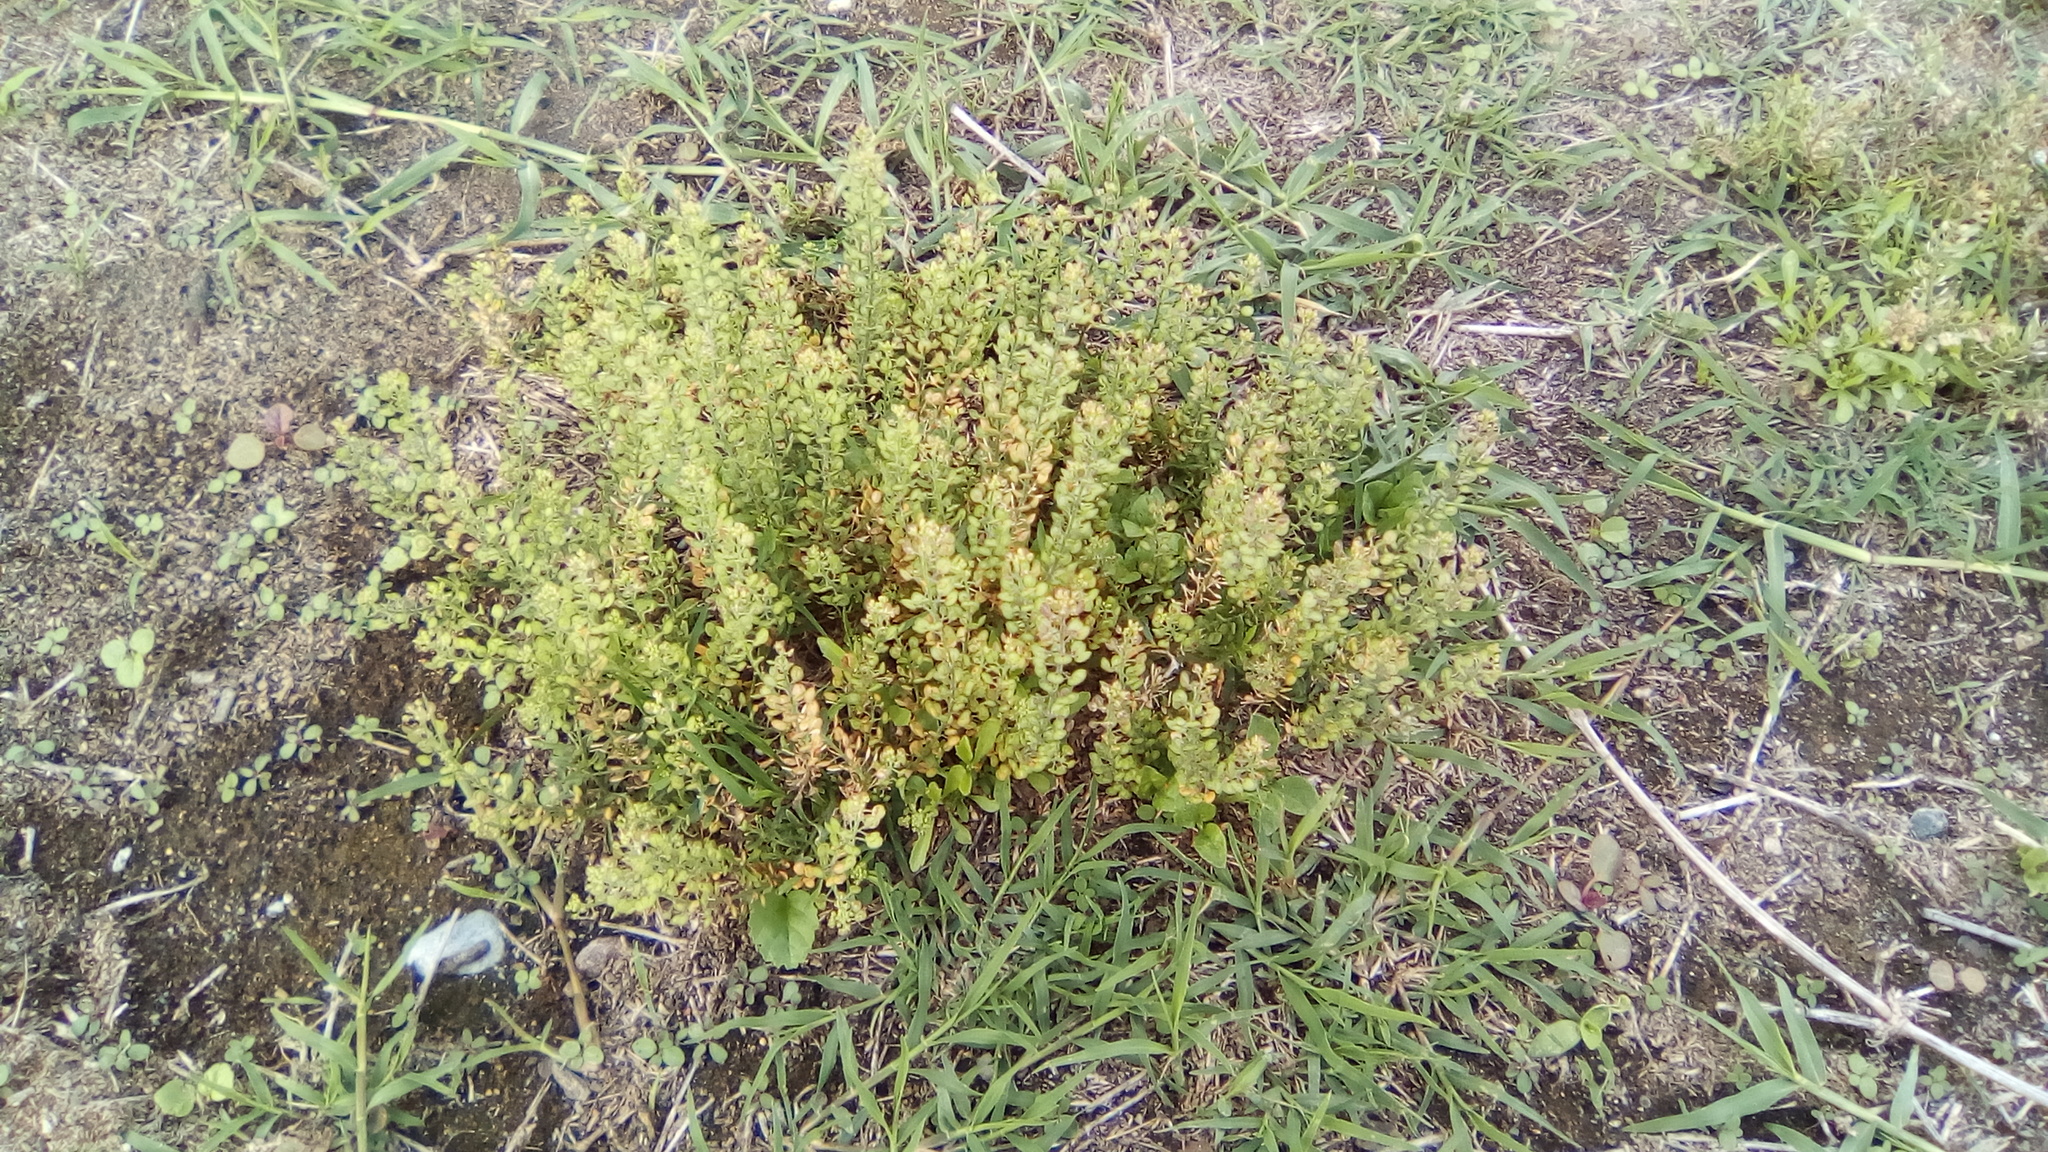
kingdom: Plantae
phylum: Tracheophyta
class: Magnoliopsida
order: Brassicales
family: Brassicaceae
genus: Lepidium
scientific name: Lepidium virginicum
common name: Least pepperwort
